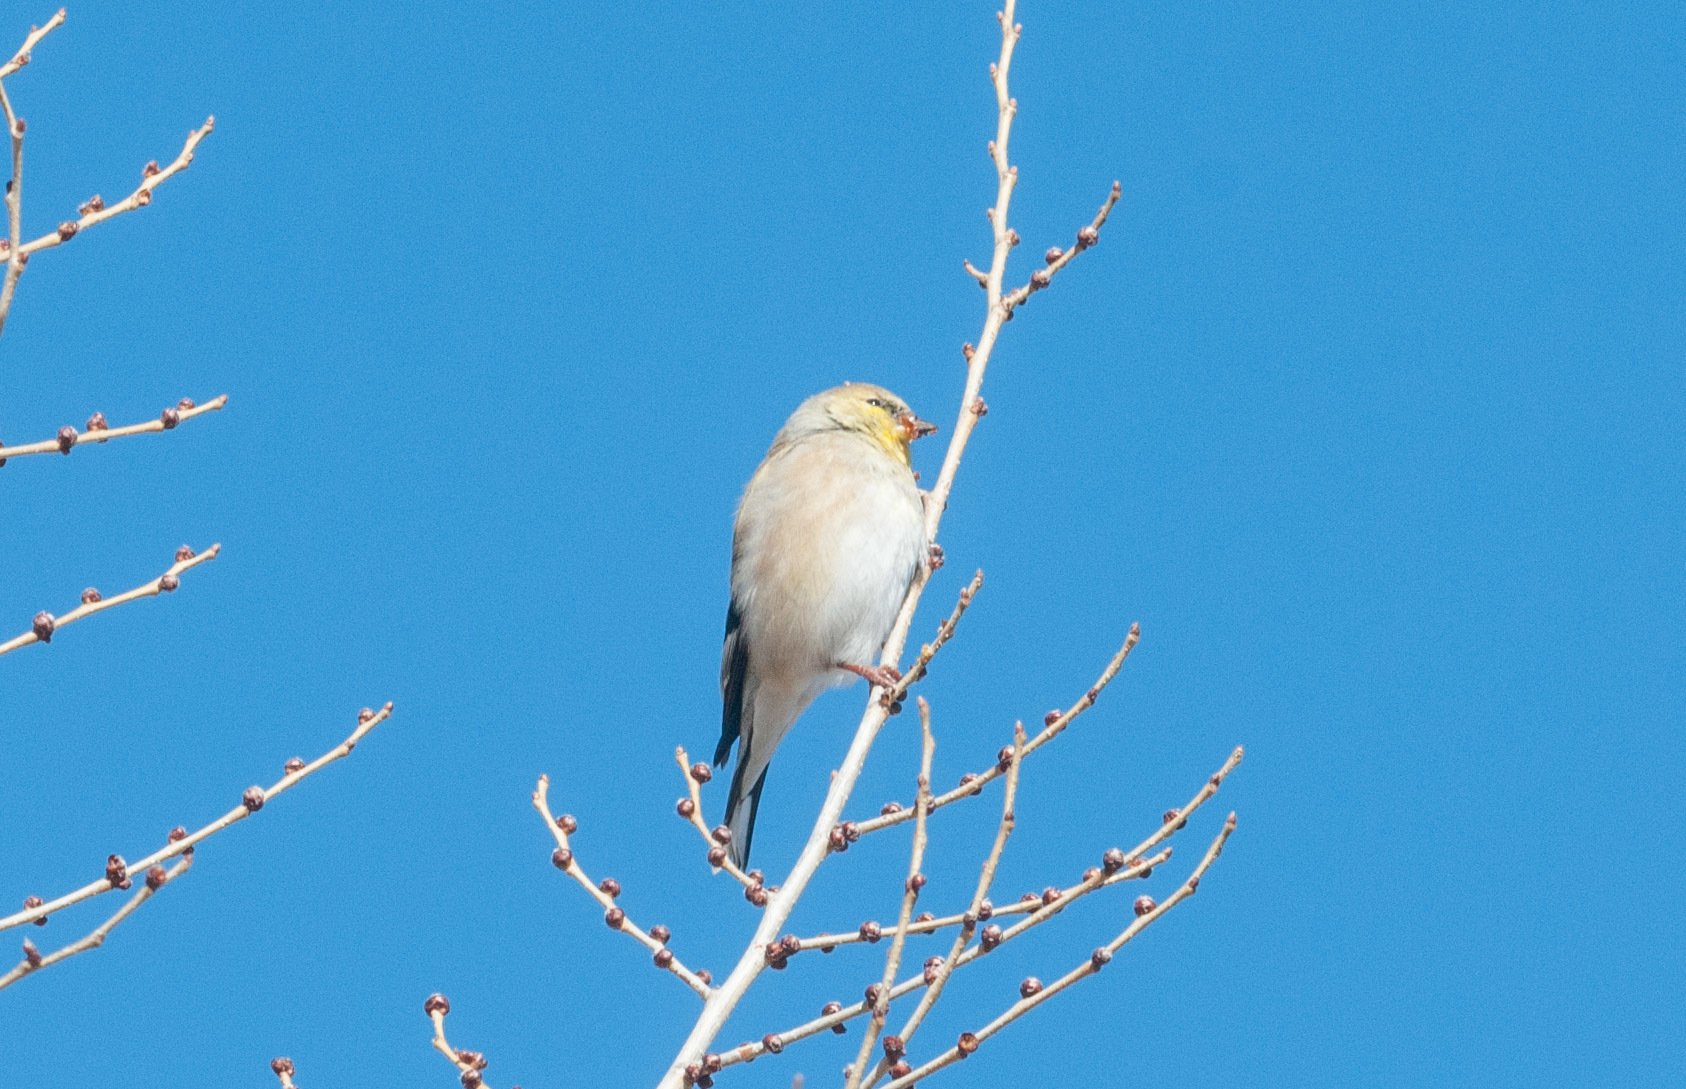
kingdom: Animalia
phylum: Chordata
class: Aves
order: Passeriformes
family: Fringillidae
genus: Spinus
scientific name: Spinus tristis
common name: American goldfinch
